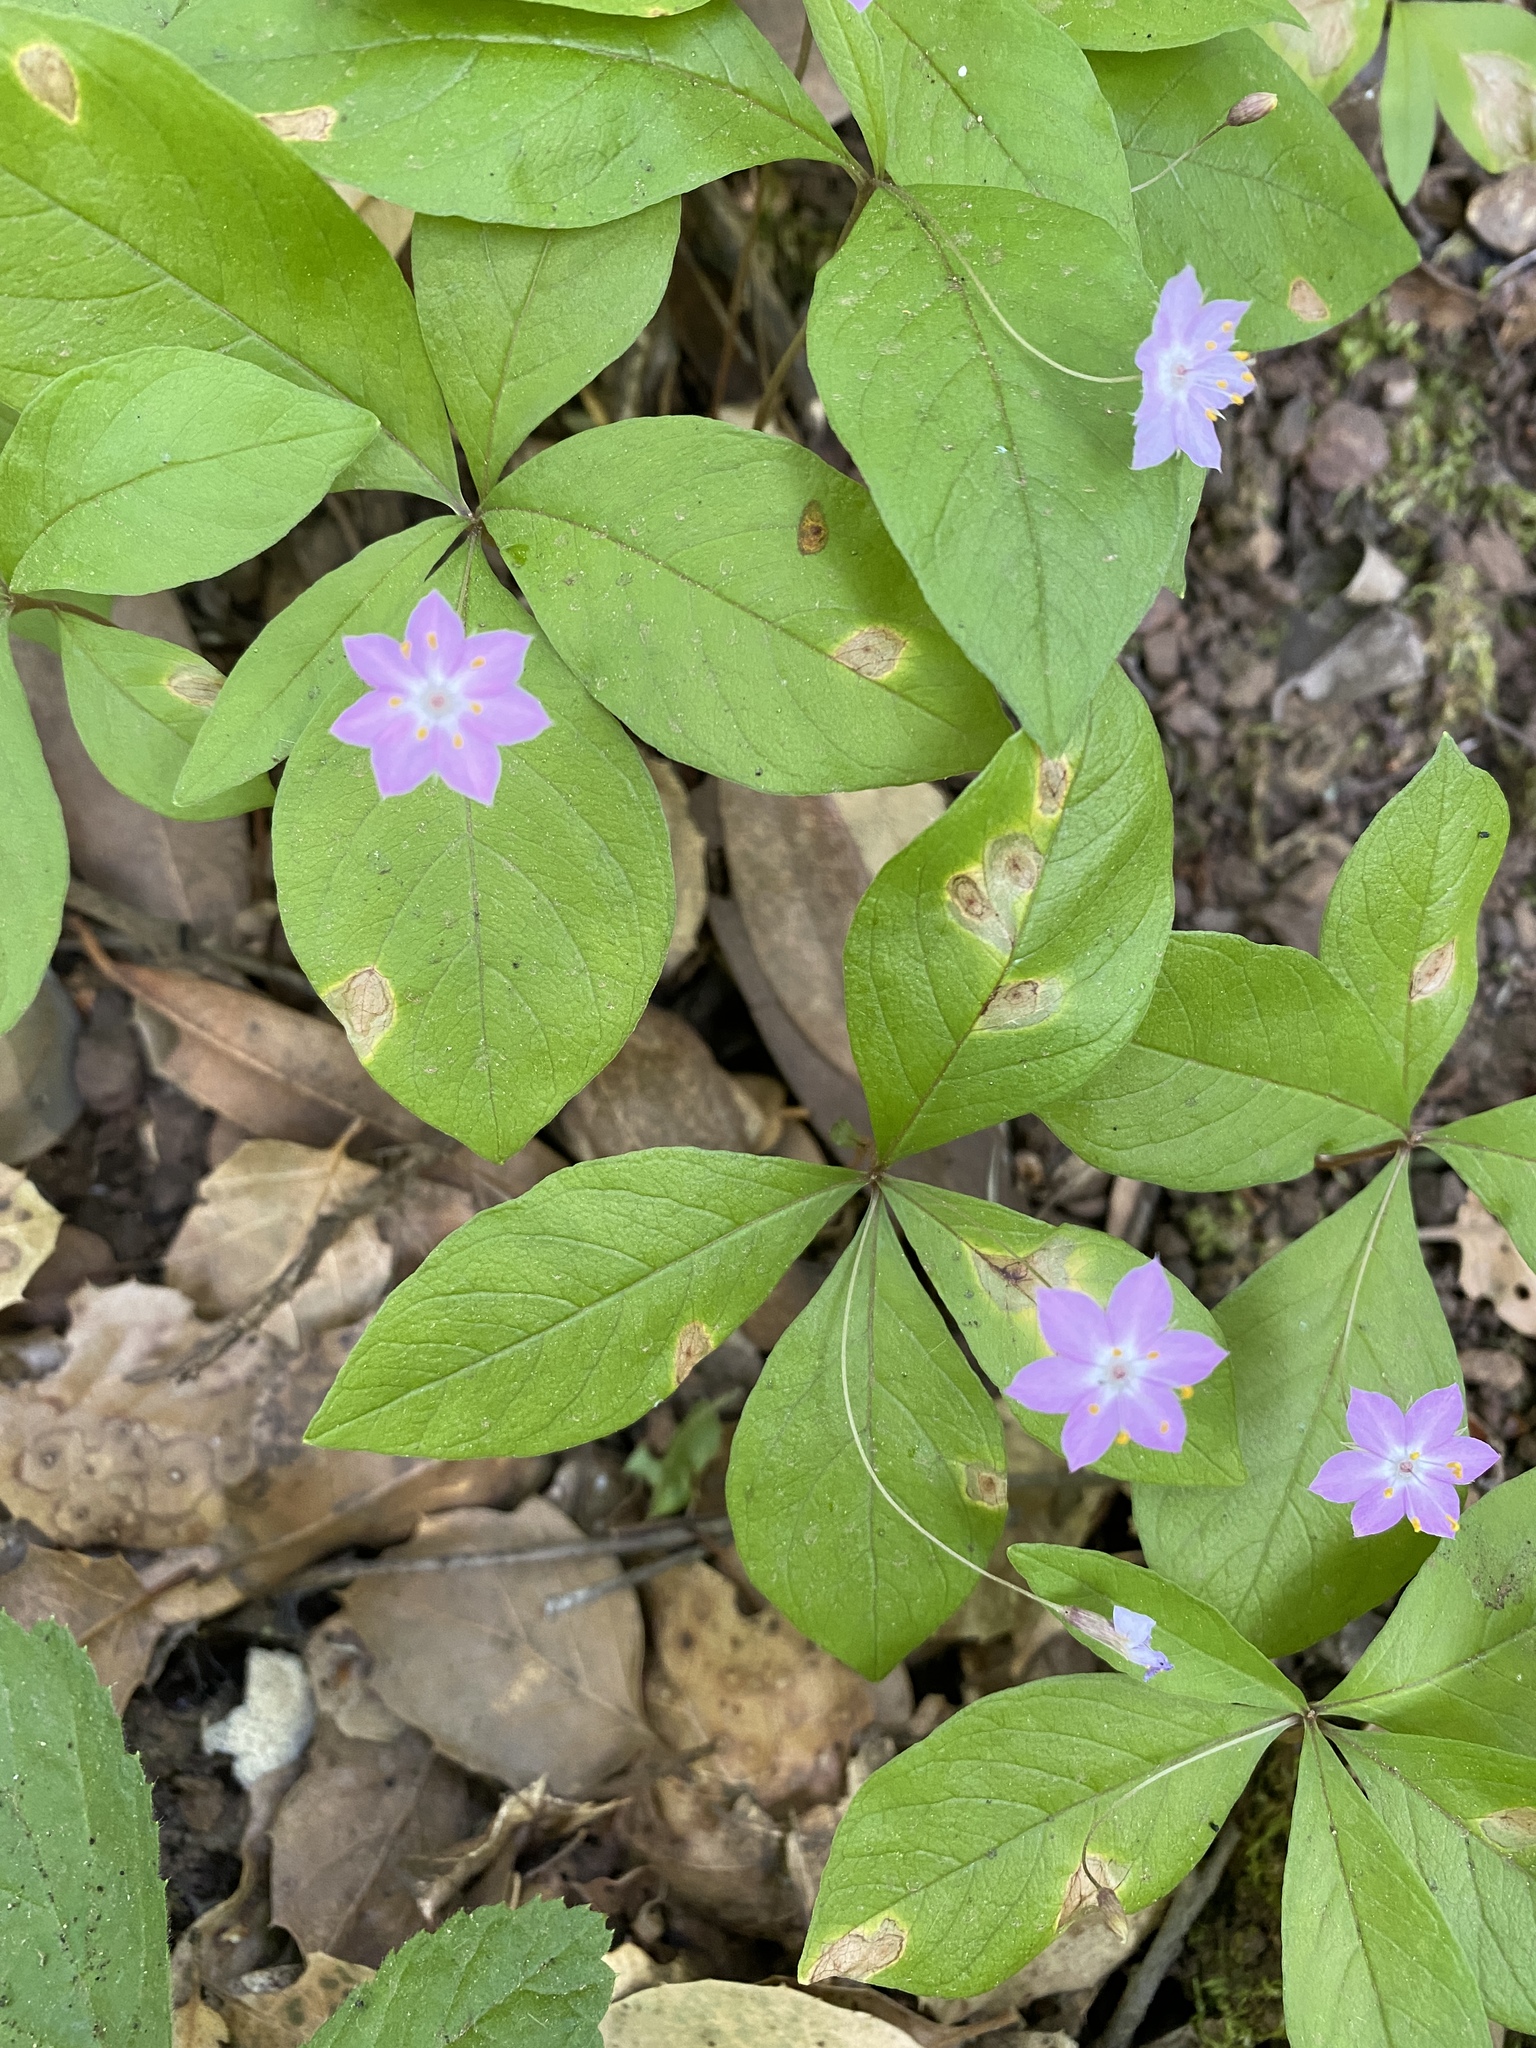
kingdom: Plantae
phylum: Tracheophyta
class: Magnoliopsida
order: Ericales
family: Primulaceae
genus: Lysimachia
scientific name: Lysimachia latifolia
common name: Pacific starflower
